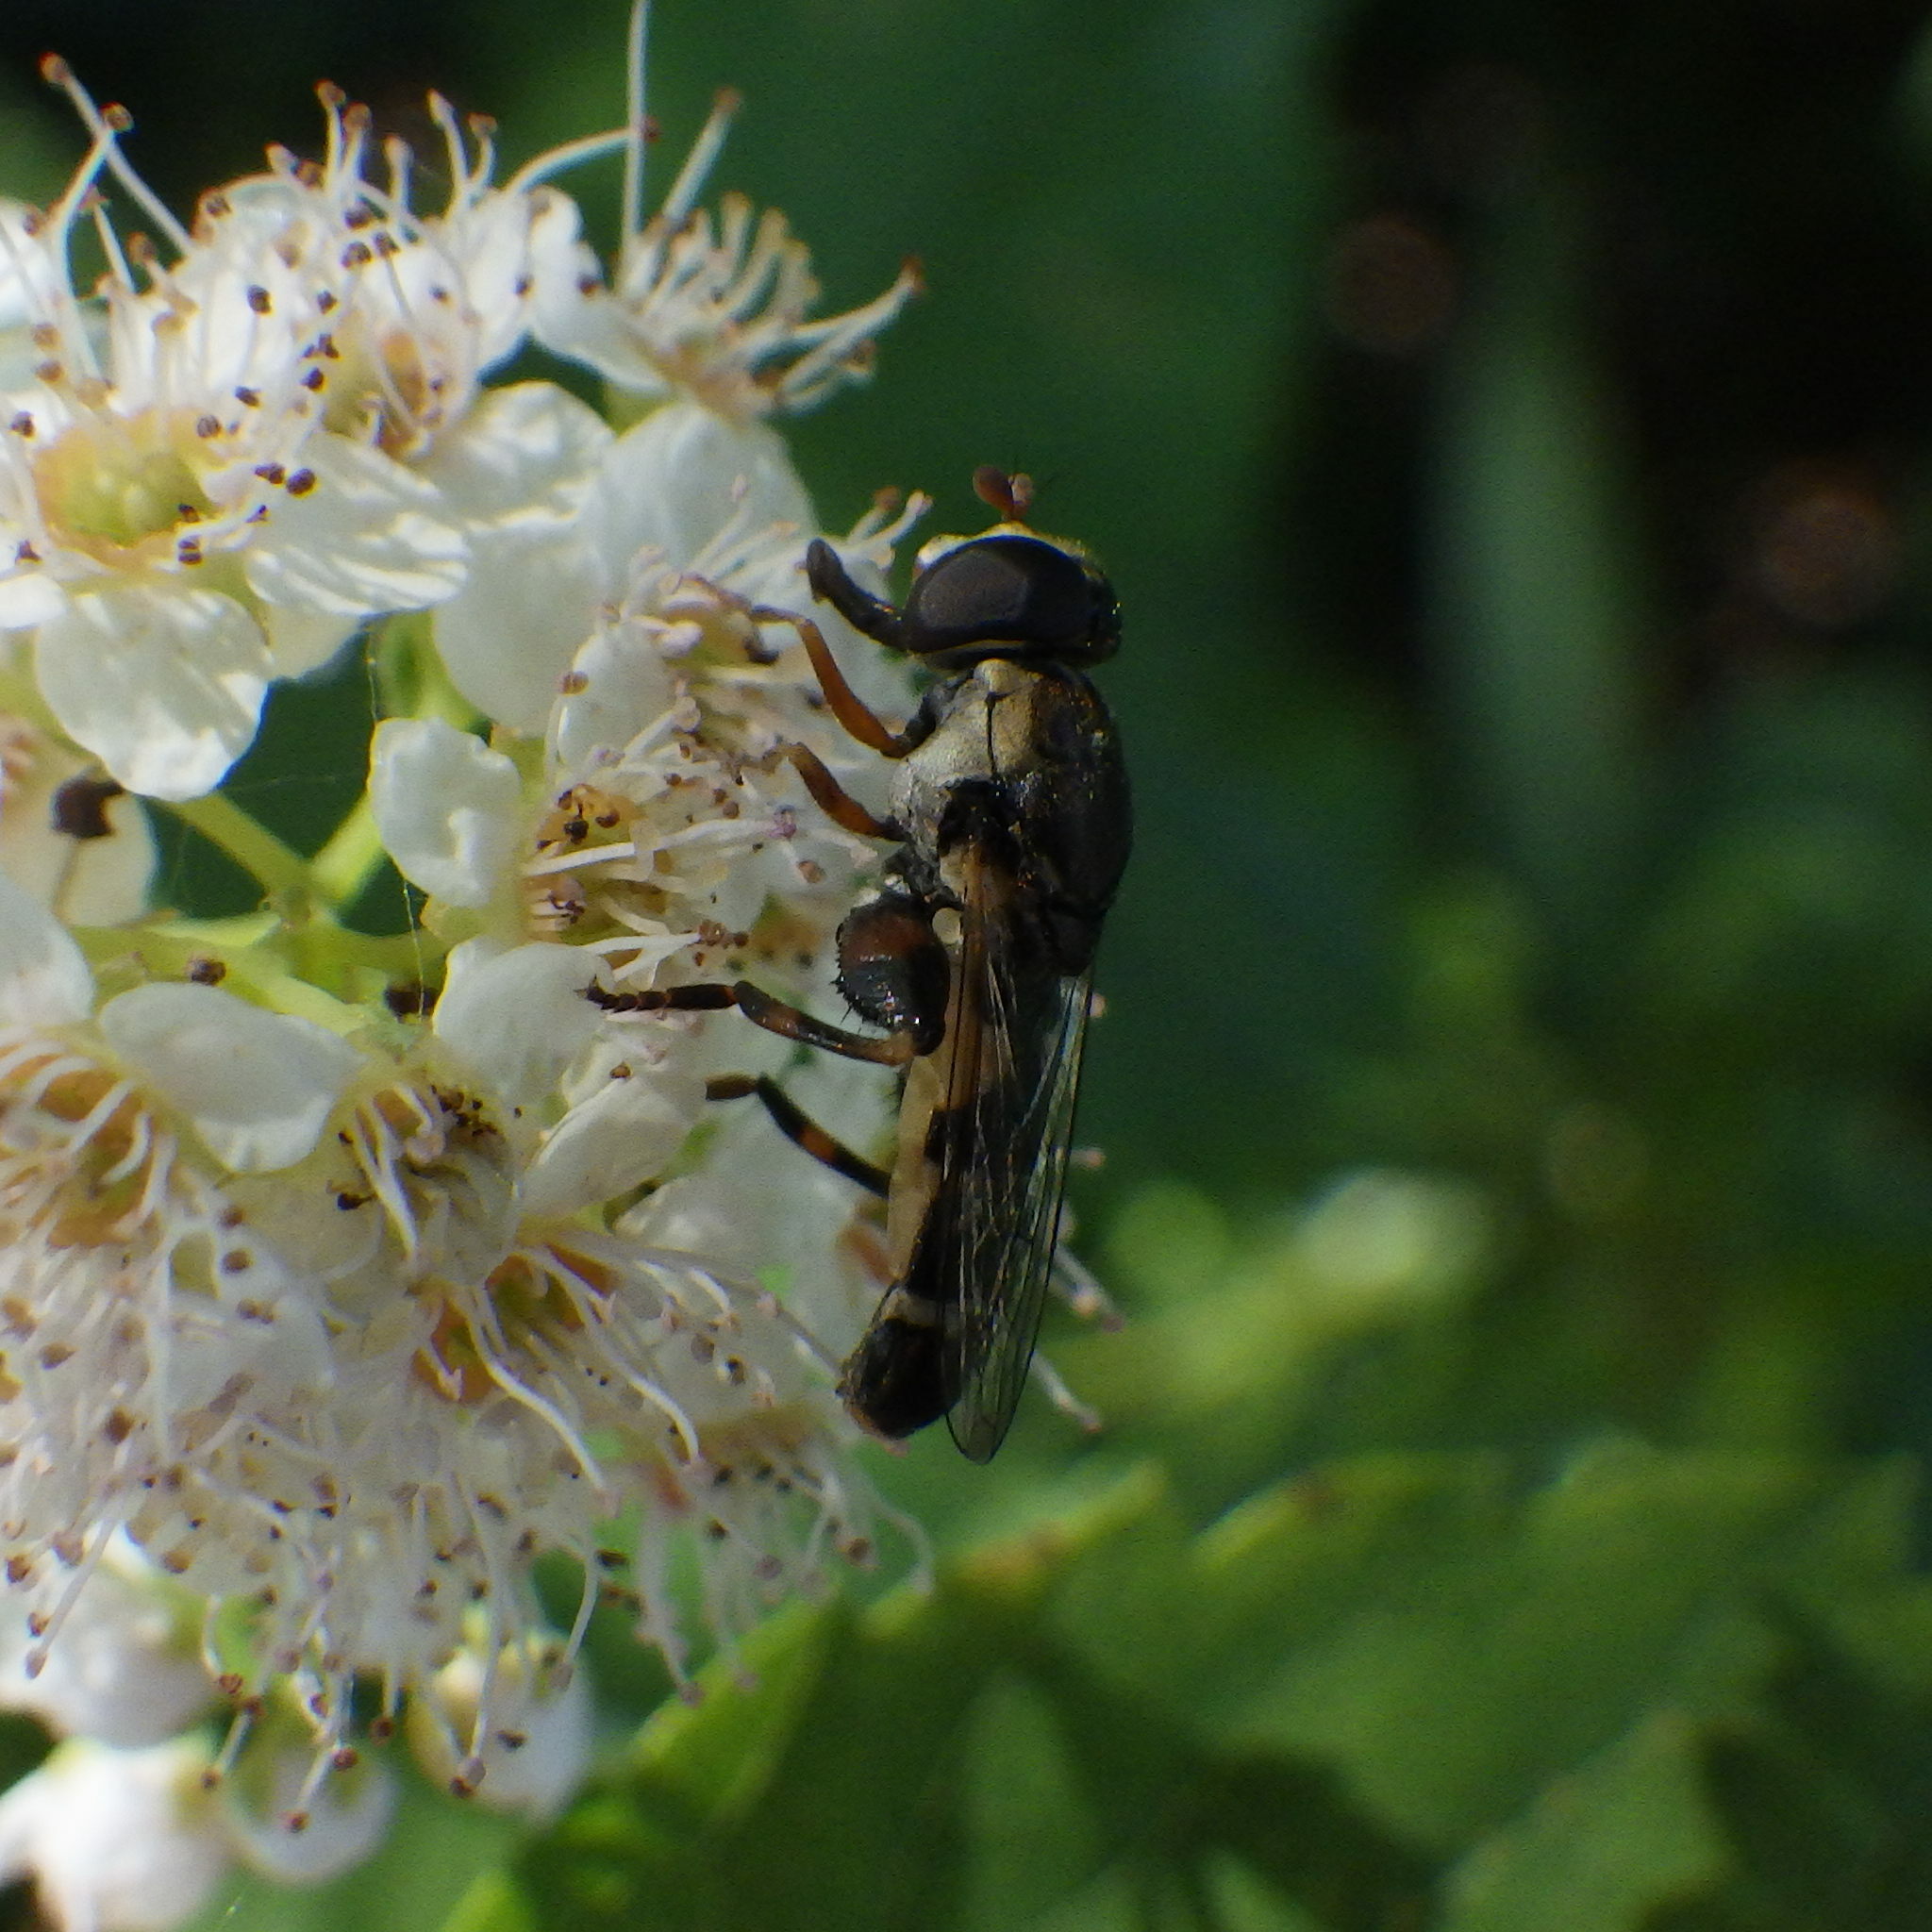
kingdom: Animalia
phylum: Arthropoda
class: Insecta
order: Diptera
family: Syrphidae
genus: Syritta
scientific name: Syritta pipiens
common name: Hover fly
